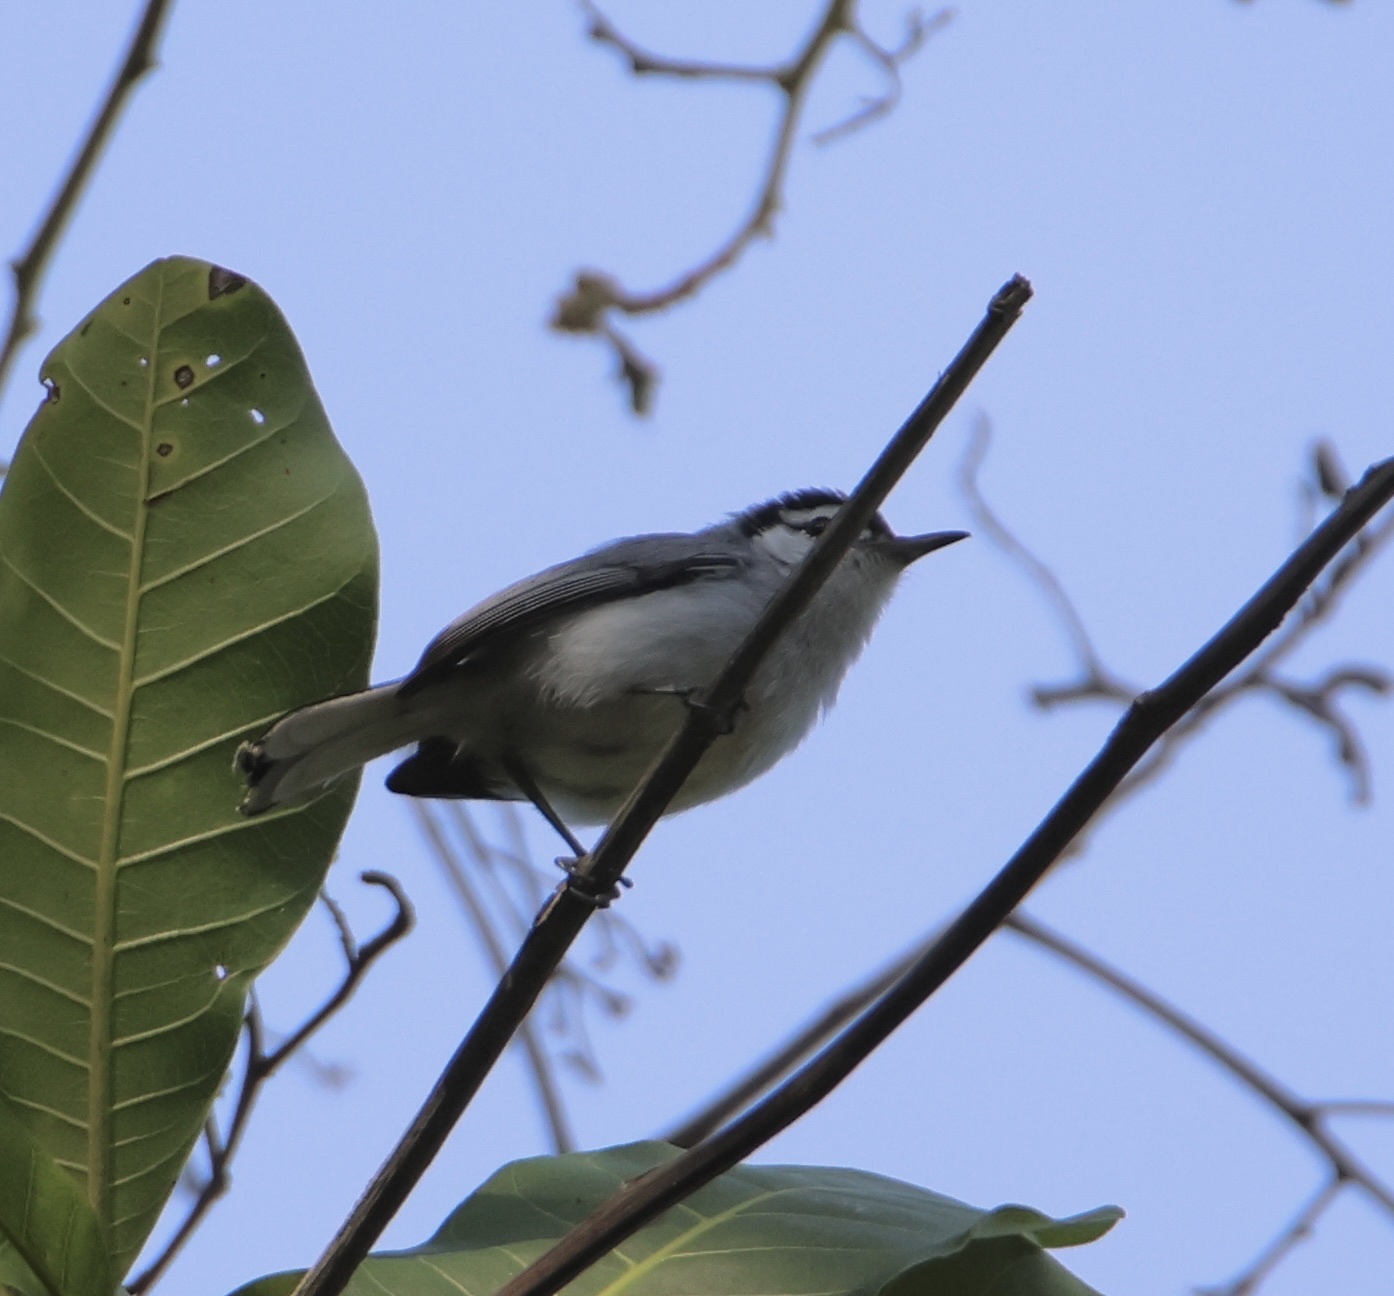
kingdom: Animalia
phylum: Chordata
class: Aves
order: Passeriformes
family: Polioptilidae
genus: Polioptila
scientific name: Polioptila plumbea
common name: Tropical gnatcatcher
